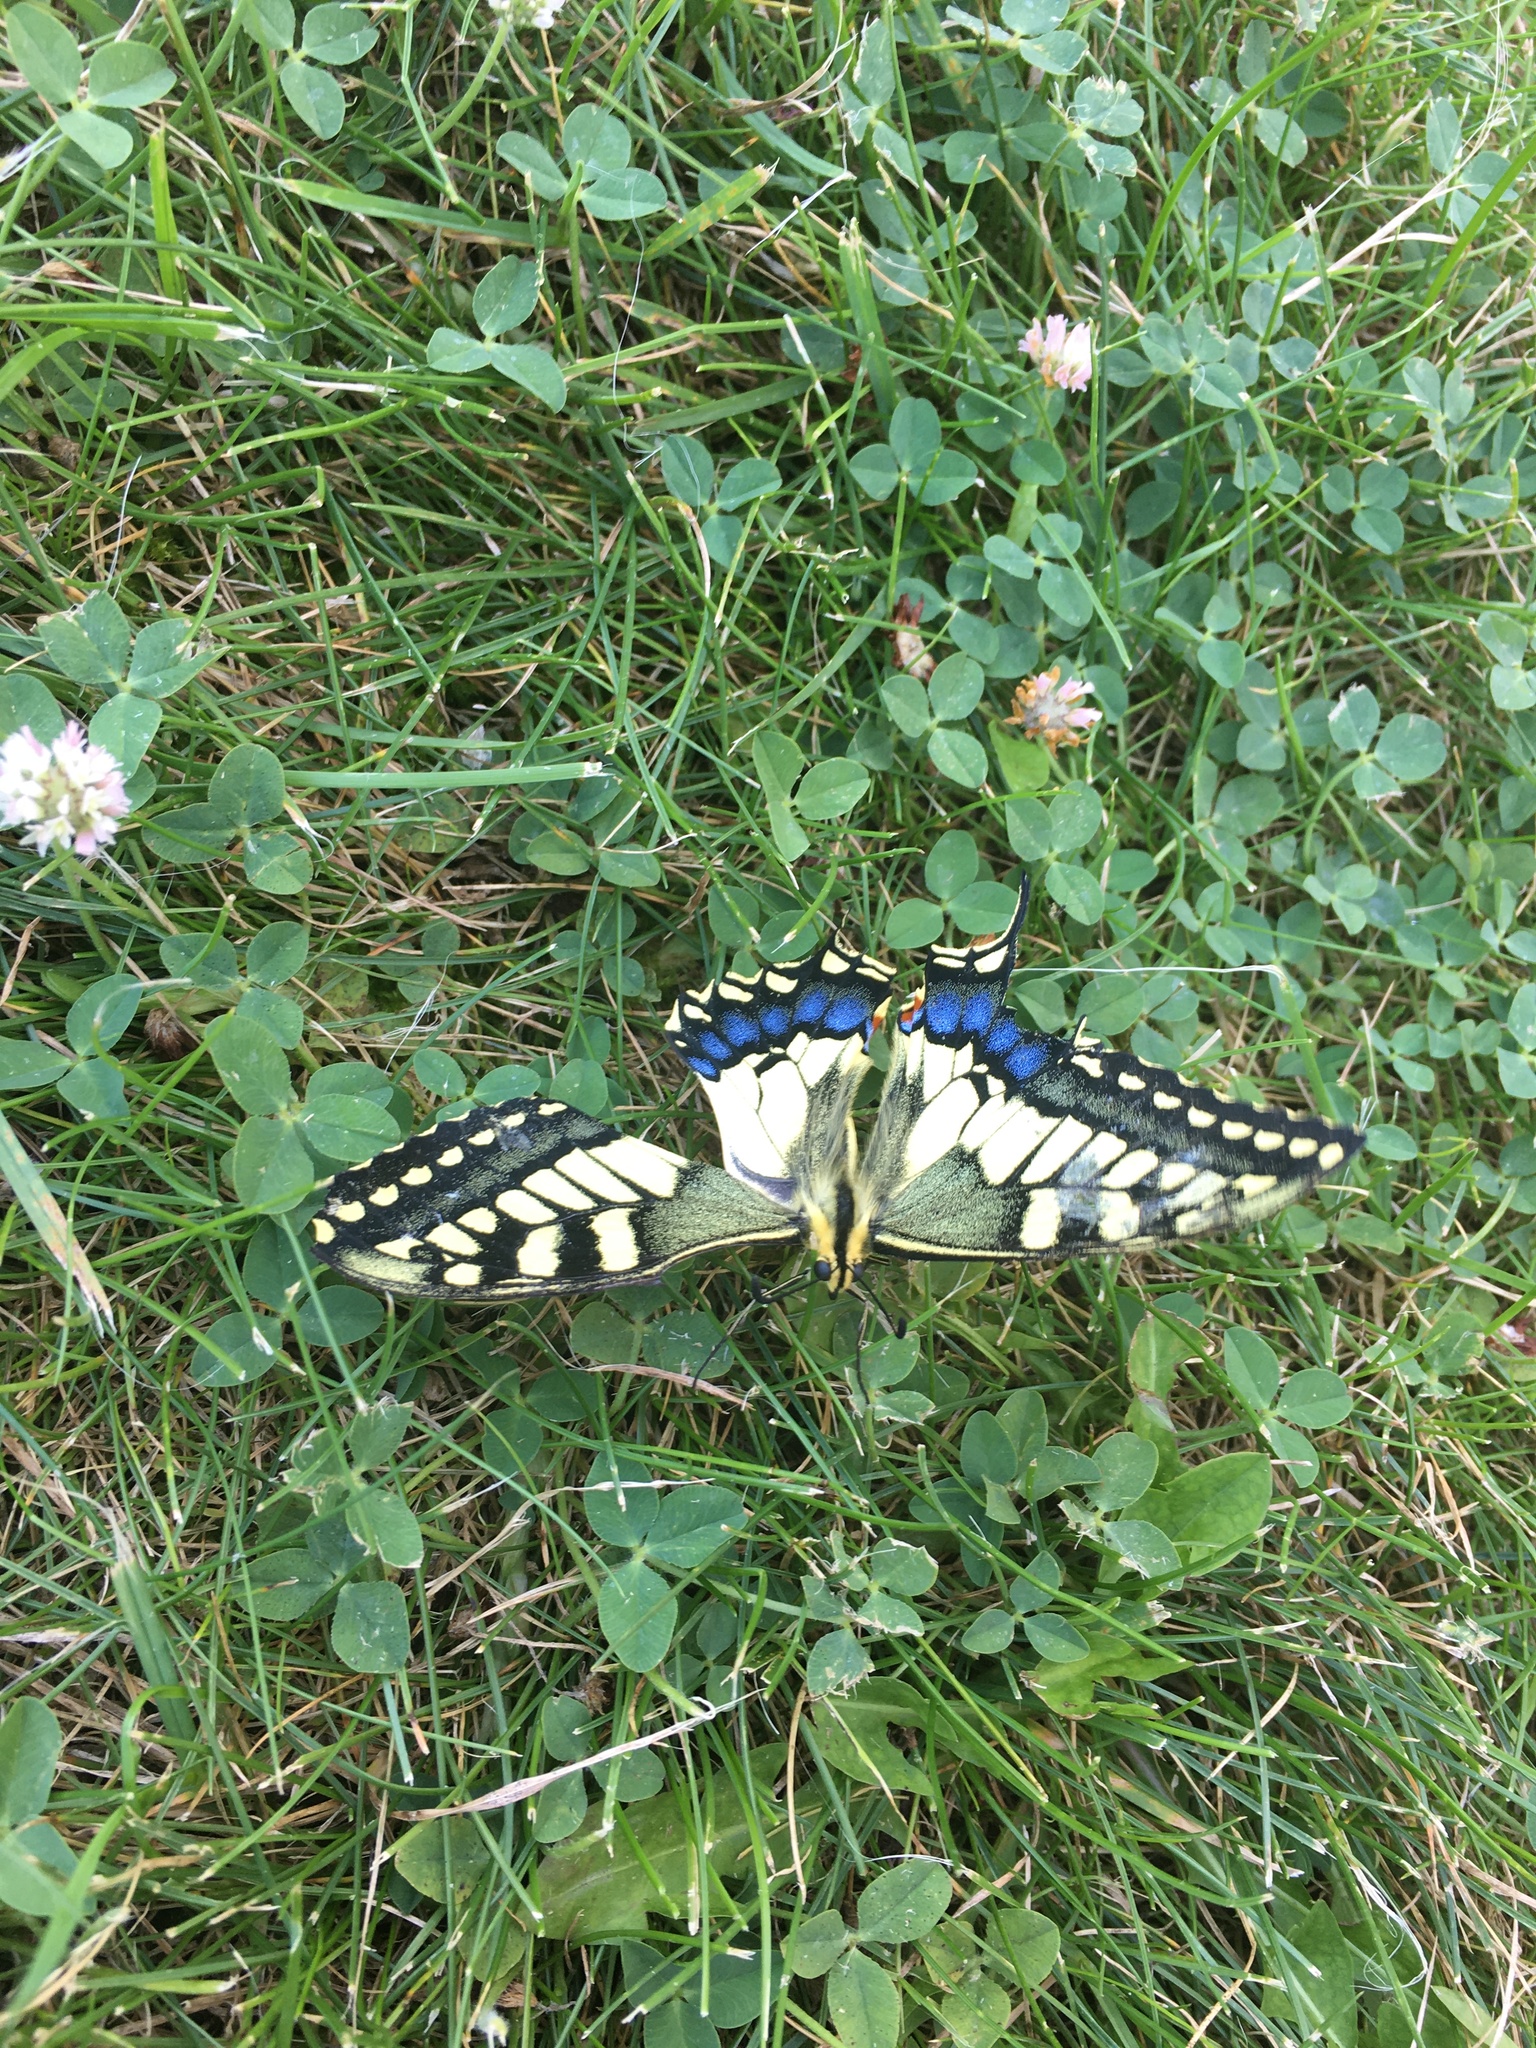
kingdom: Animalia
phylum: Arthropoda
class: Insecta
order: Lepidoptera
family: Papilionidae
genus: Papilio
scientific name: Papilio machaon
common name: Swallowtail
